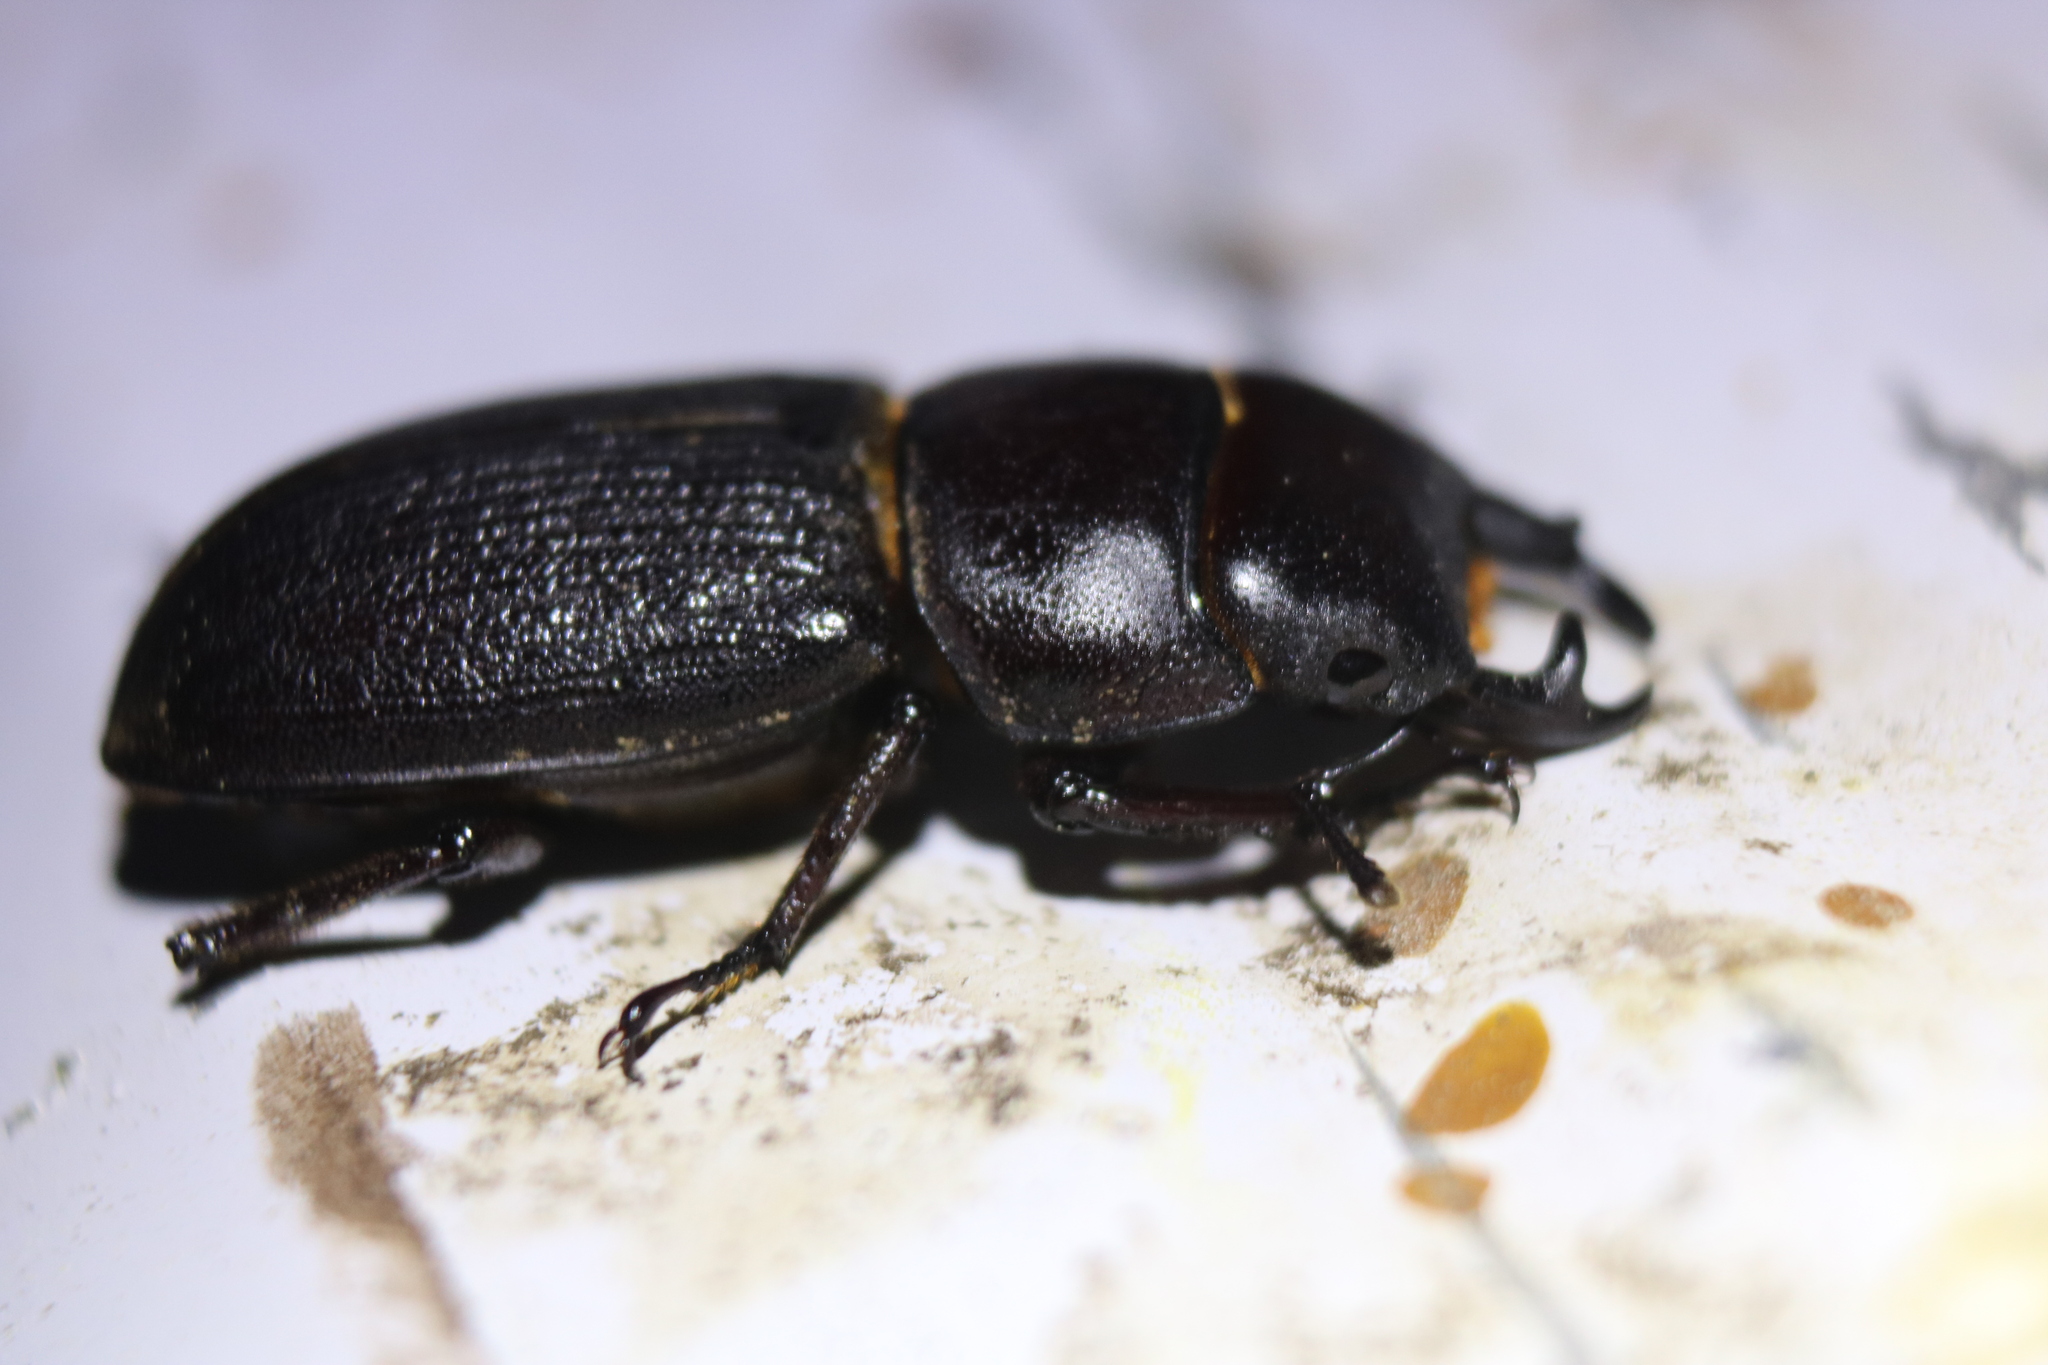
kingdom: Animalia
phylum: Arthropoda
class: Insecta
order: Coleoptera
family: Lucanidae
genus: Dorcus
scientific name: Dorcus parallelus
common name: Antelope beetle
